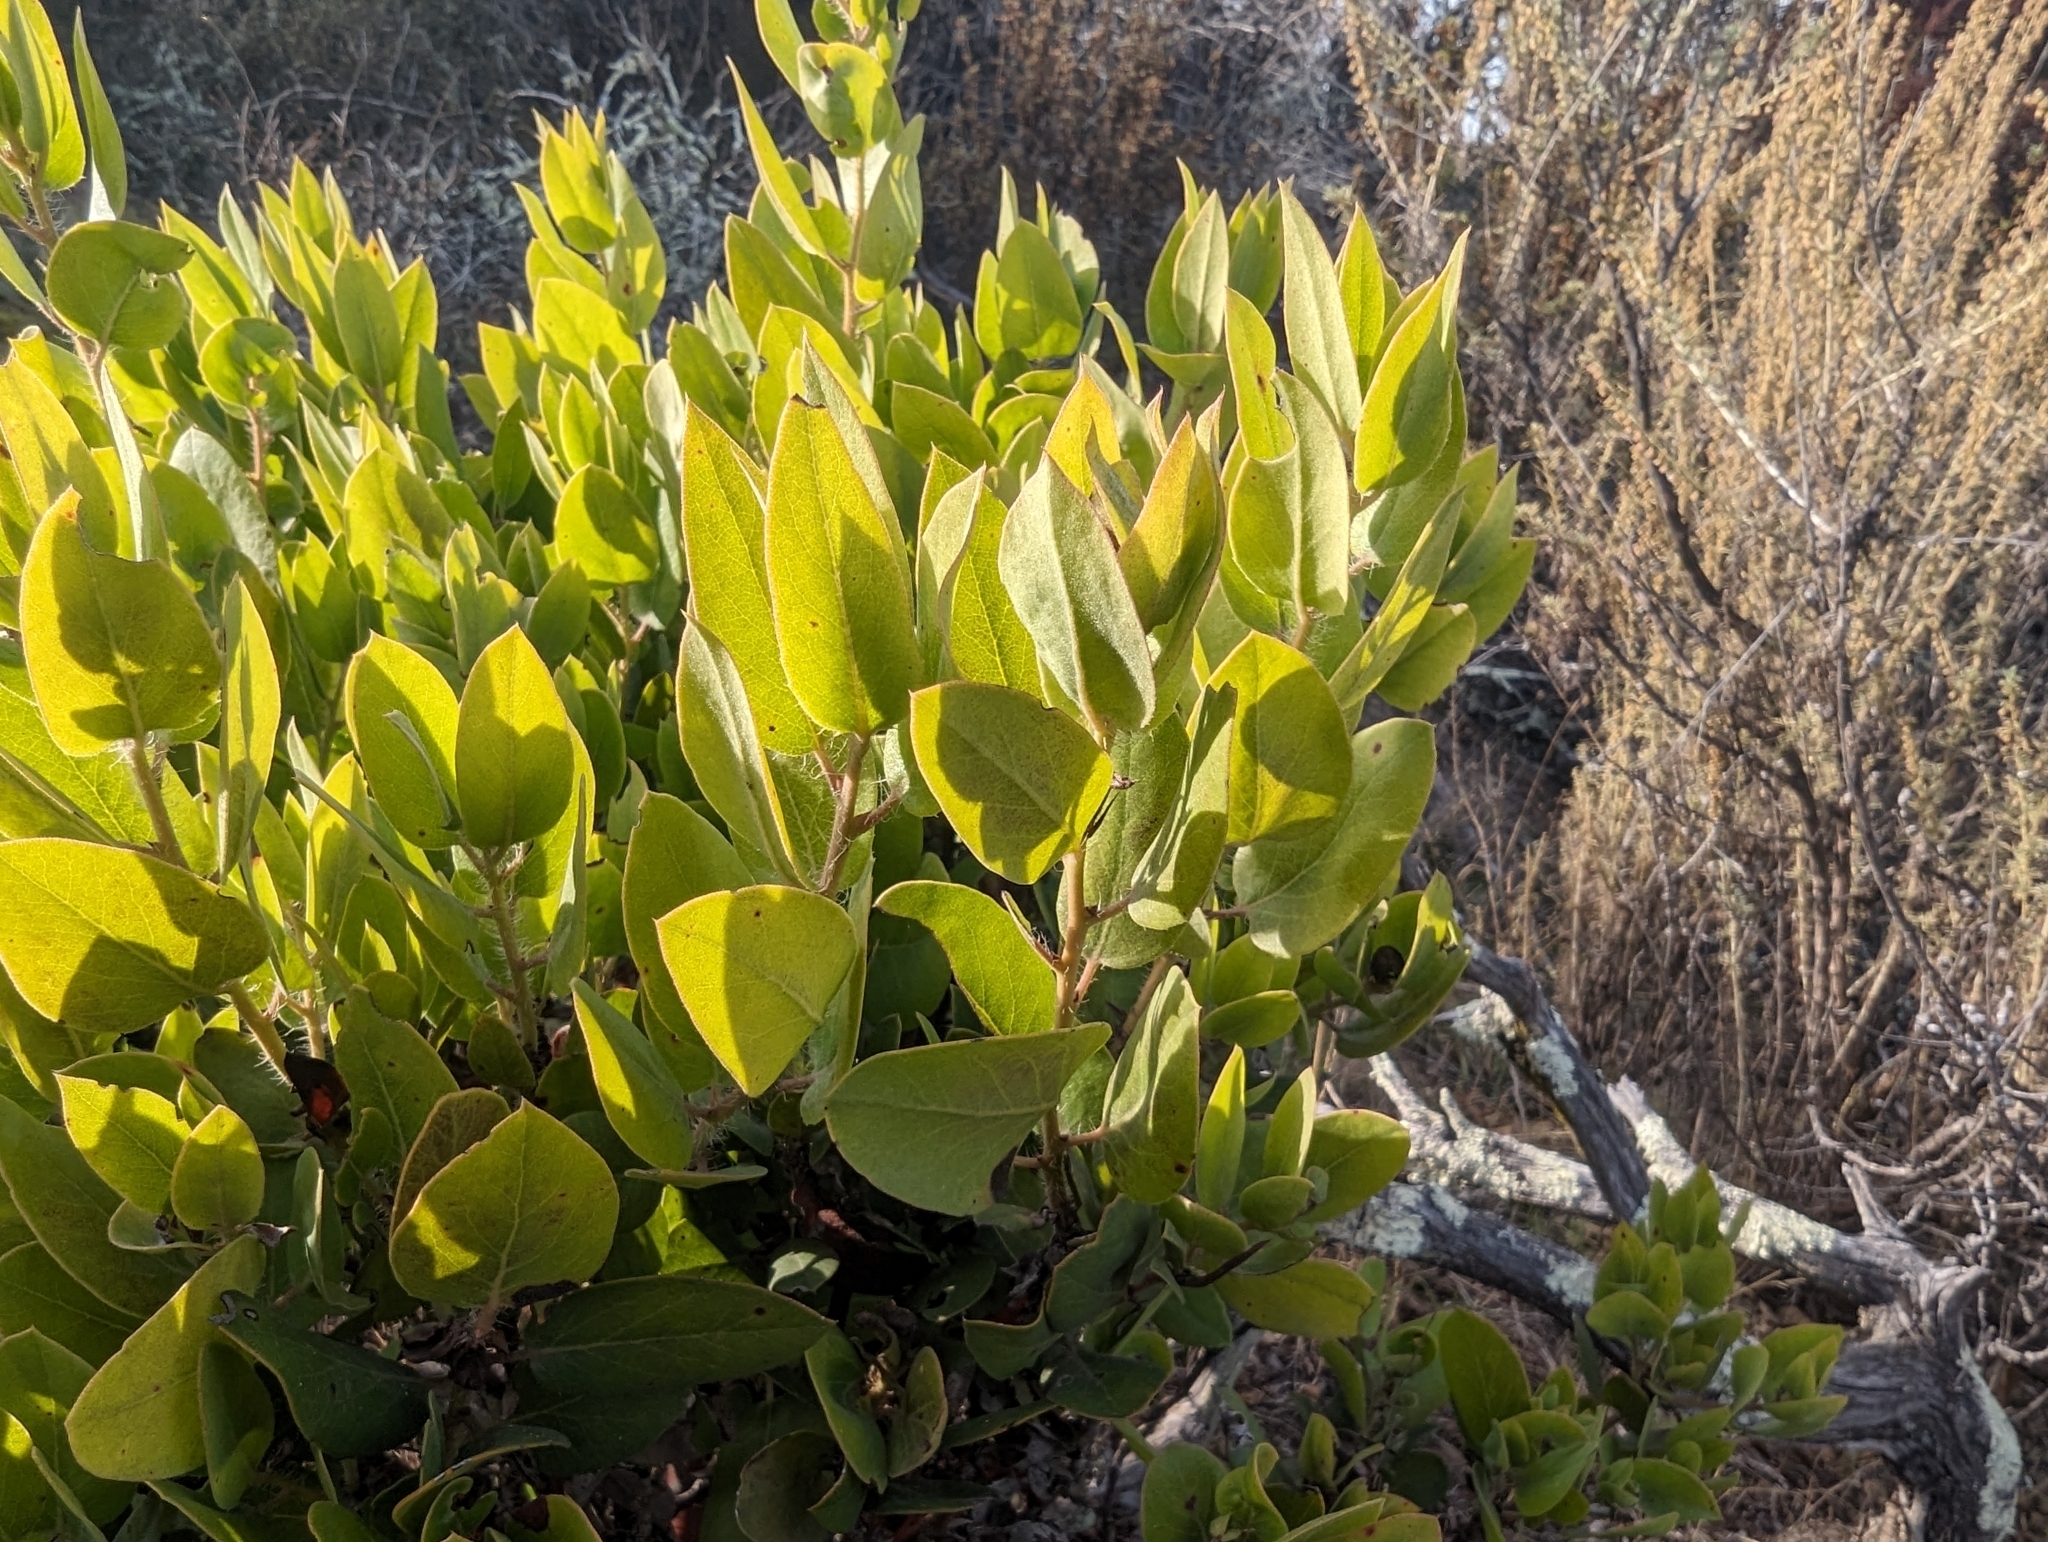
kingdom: Plantae
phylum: Tracheophyta
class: Magnoliopsida
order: Ericales
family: Ericaceae
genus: Arctostaphylos
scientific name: Arctostaphylos crustacea
